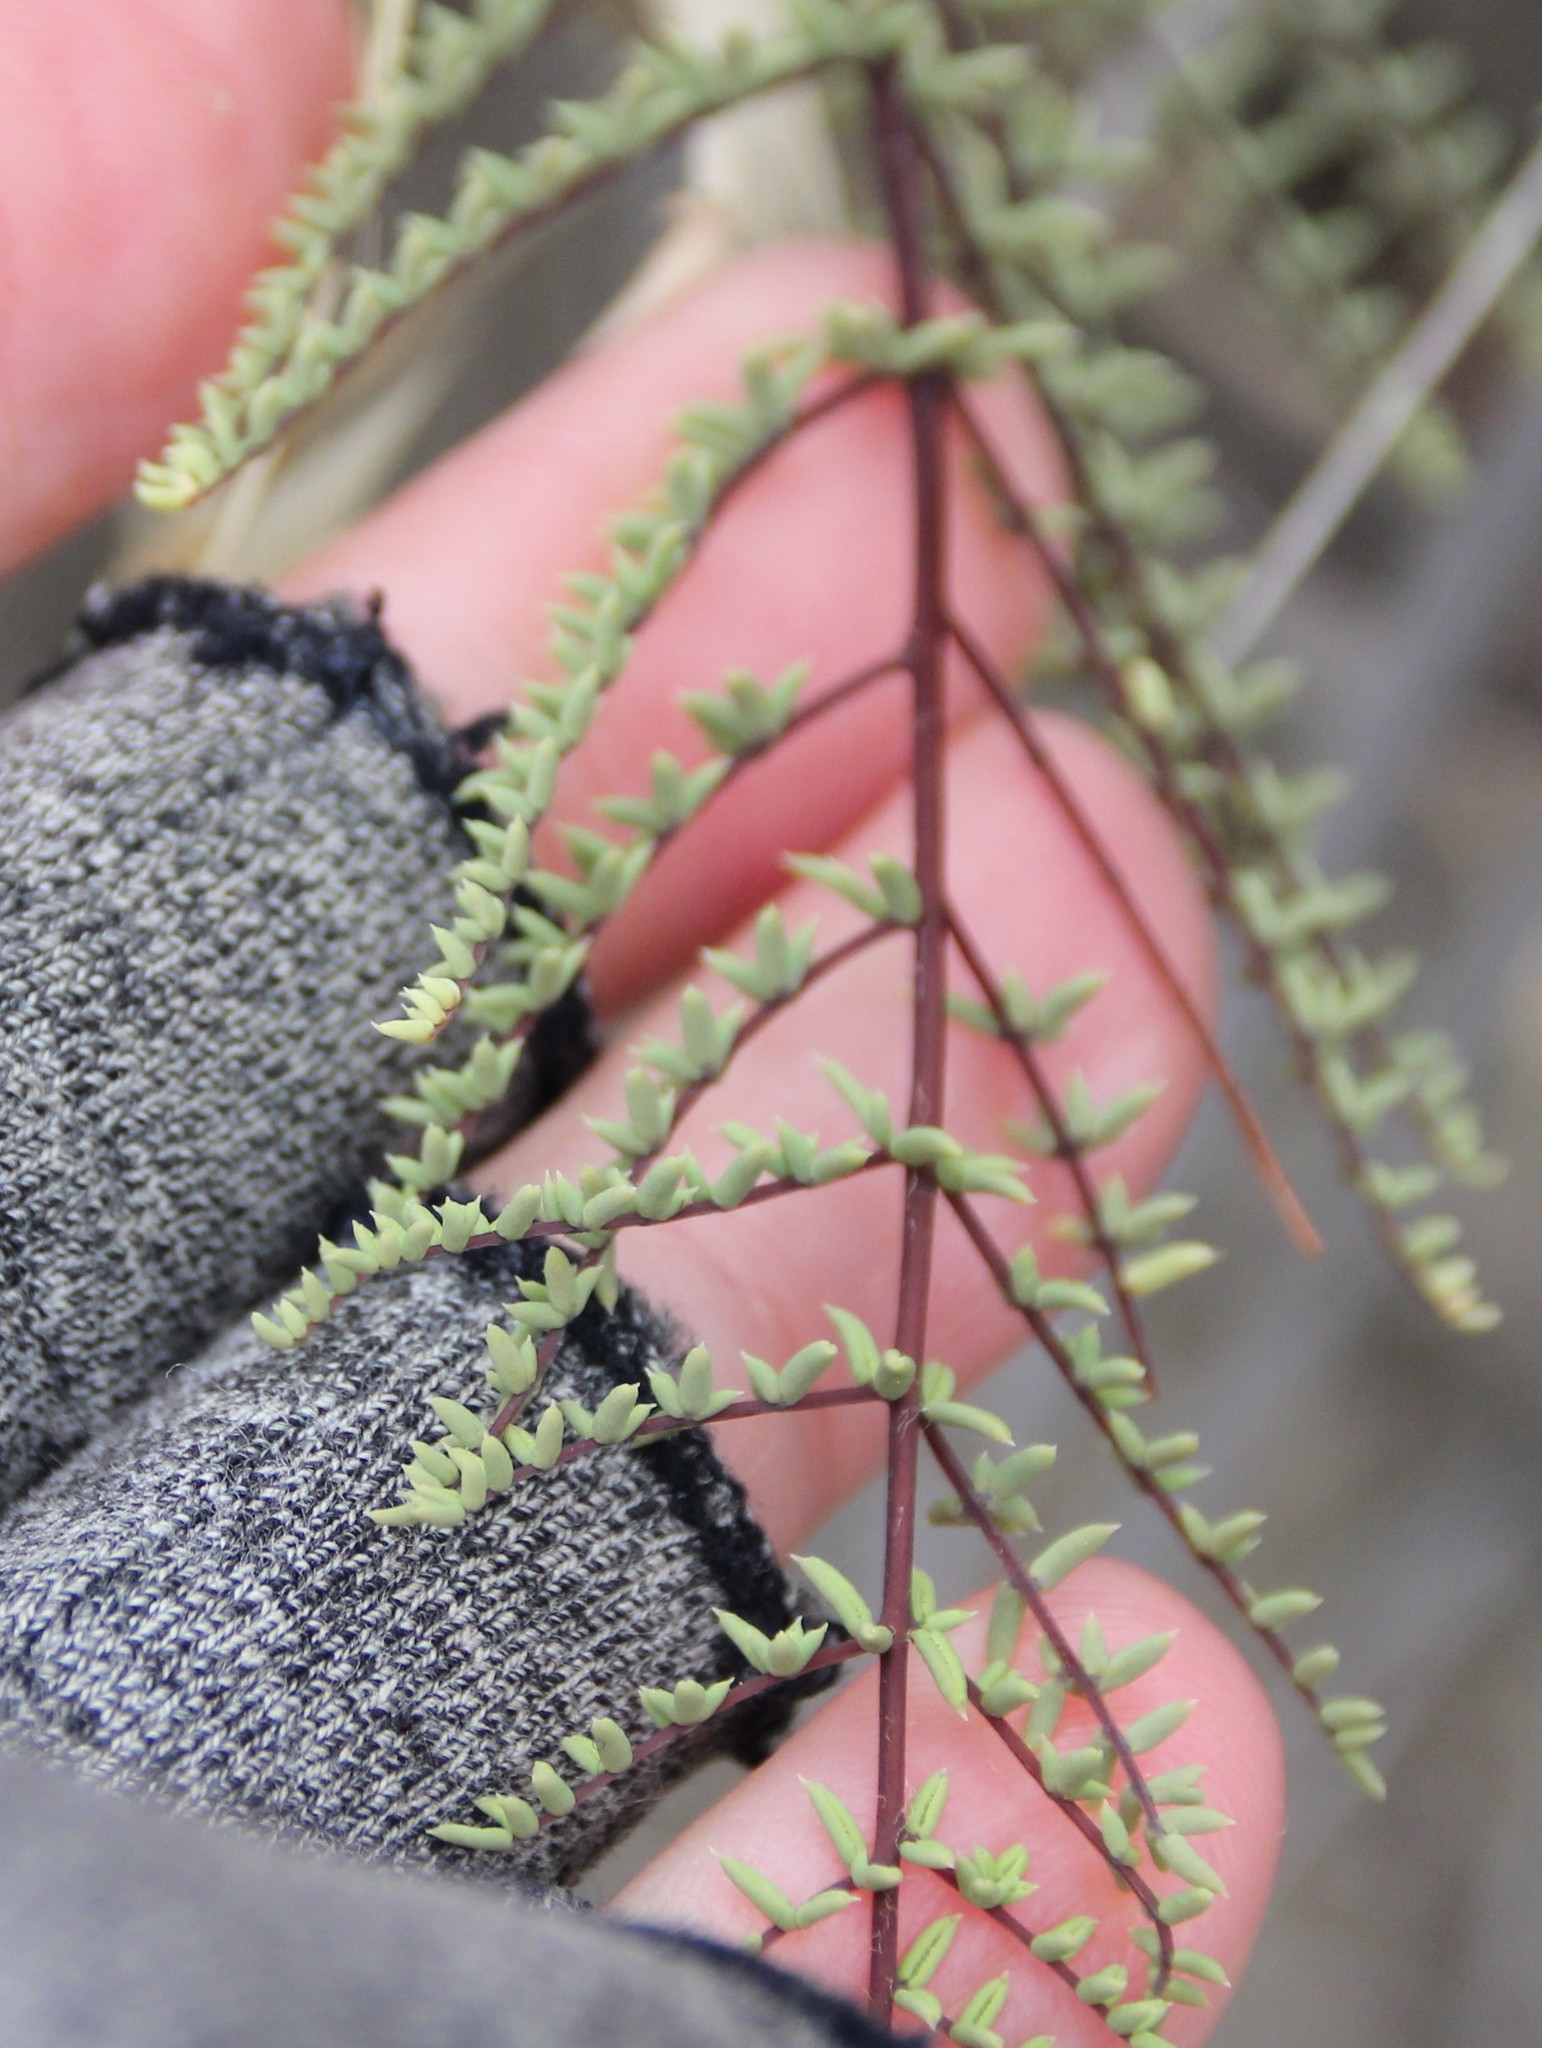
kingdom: Plantae
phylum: Tracheophyta
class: Polypodiopsida
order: Polypodiales
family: Pteridaceae
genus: Pellaea
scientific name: Pellaea mucronata
